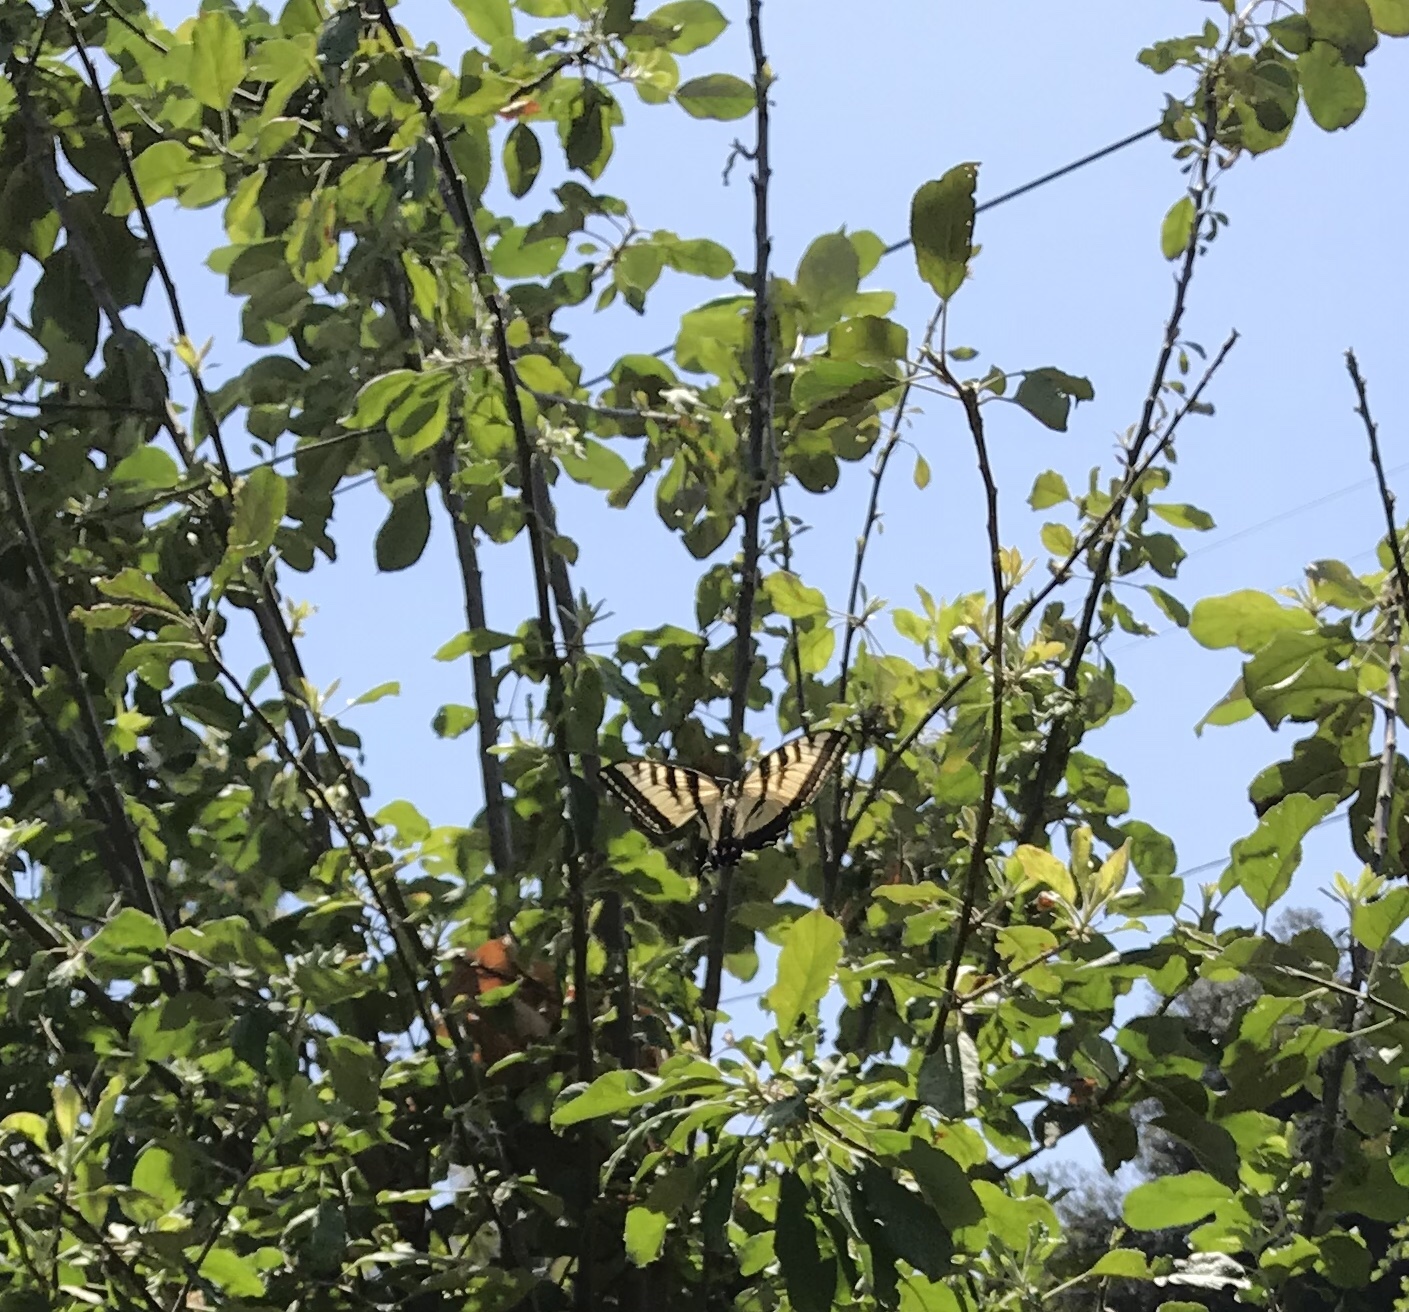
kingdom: Animalia
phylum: Arthropoda
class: Insecta
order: Lepidoptera
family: Papilionidae
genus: Papilio
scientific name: Papilio rutulus
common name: Western tiger swallowtail
